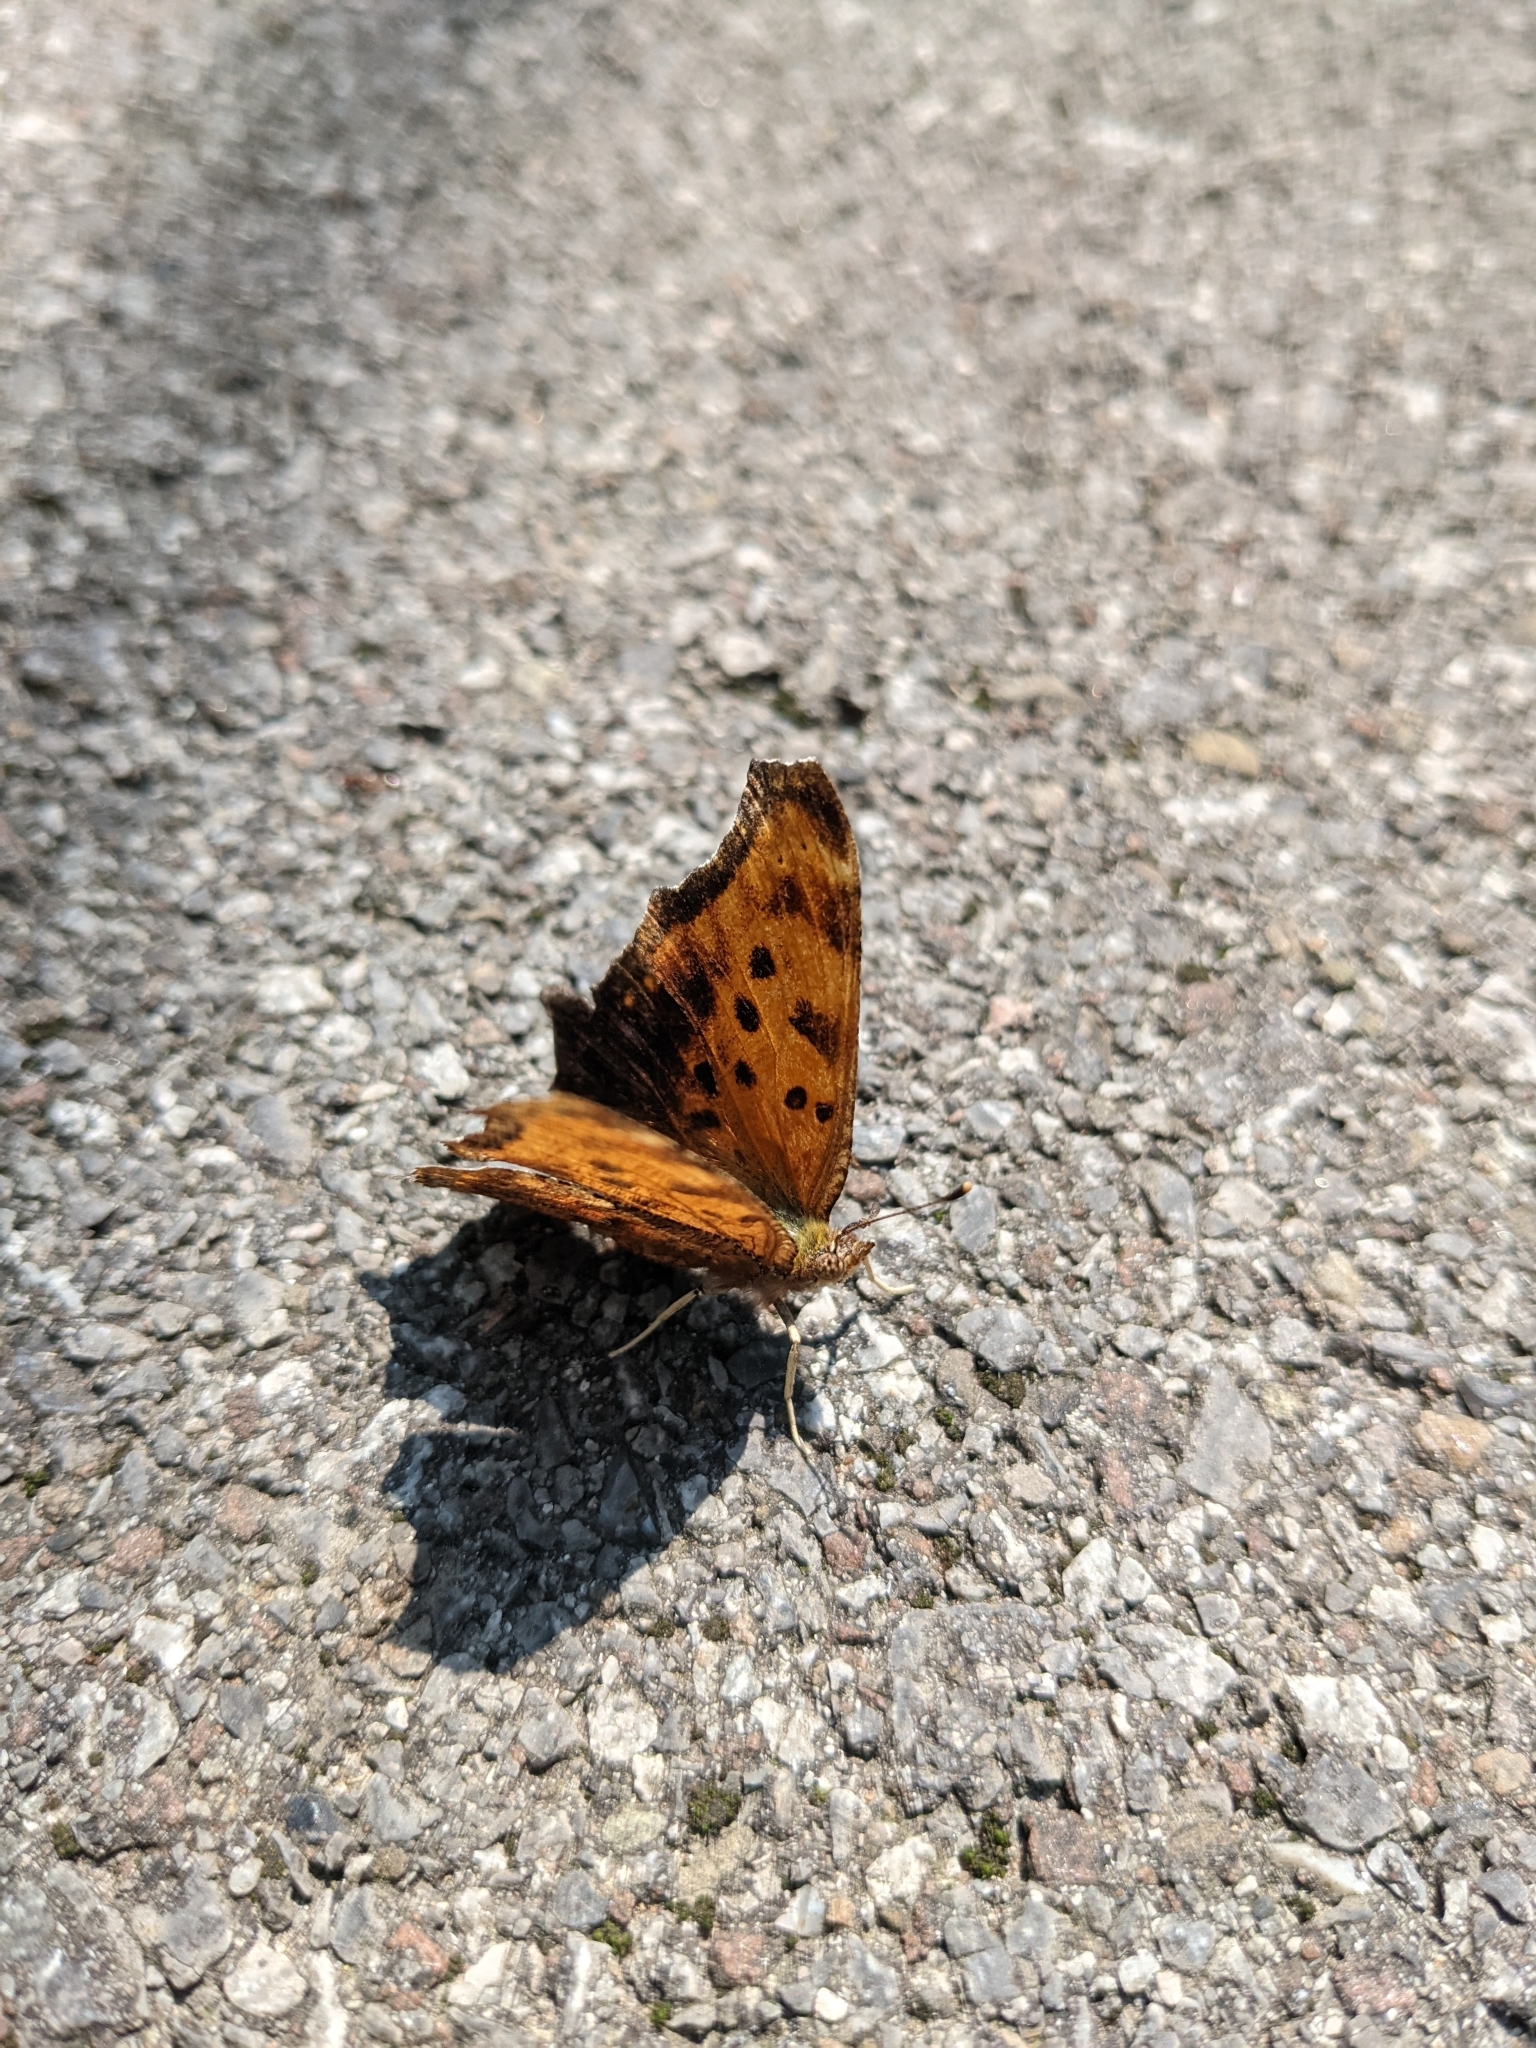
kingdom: Animalia
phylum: Arthropoda
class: Insecta
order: Lepidoptera
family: Nymphalidae
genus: Polygonia
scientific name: Polygonia comma
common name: Eastern comma
